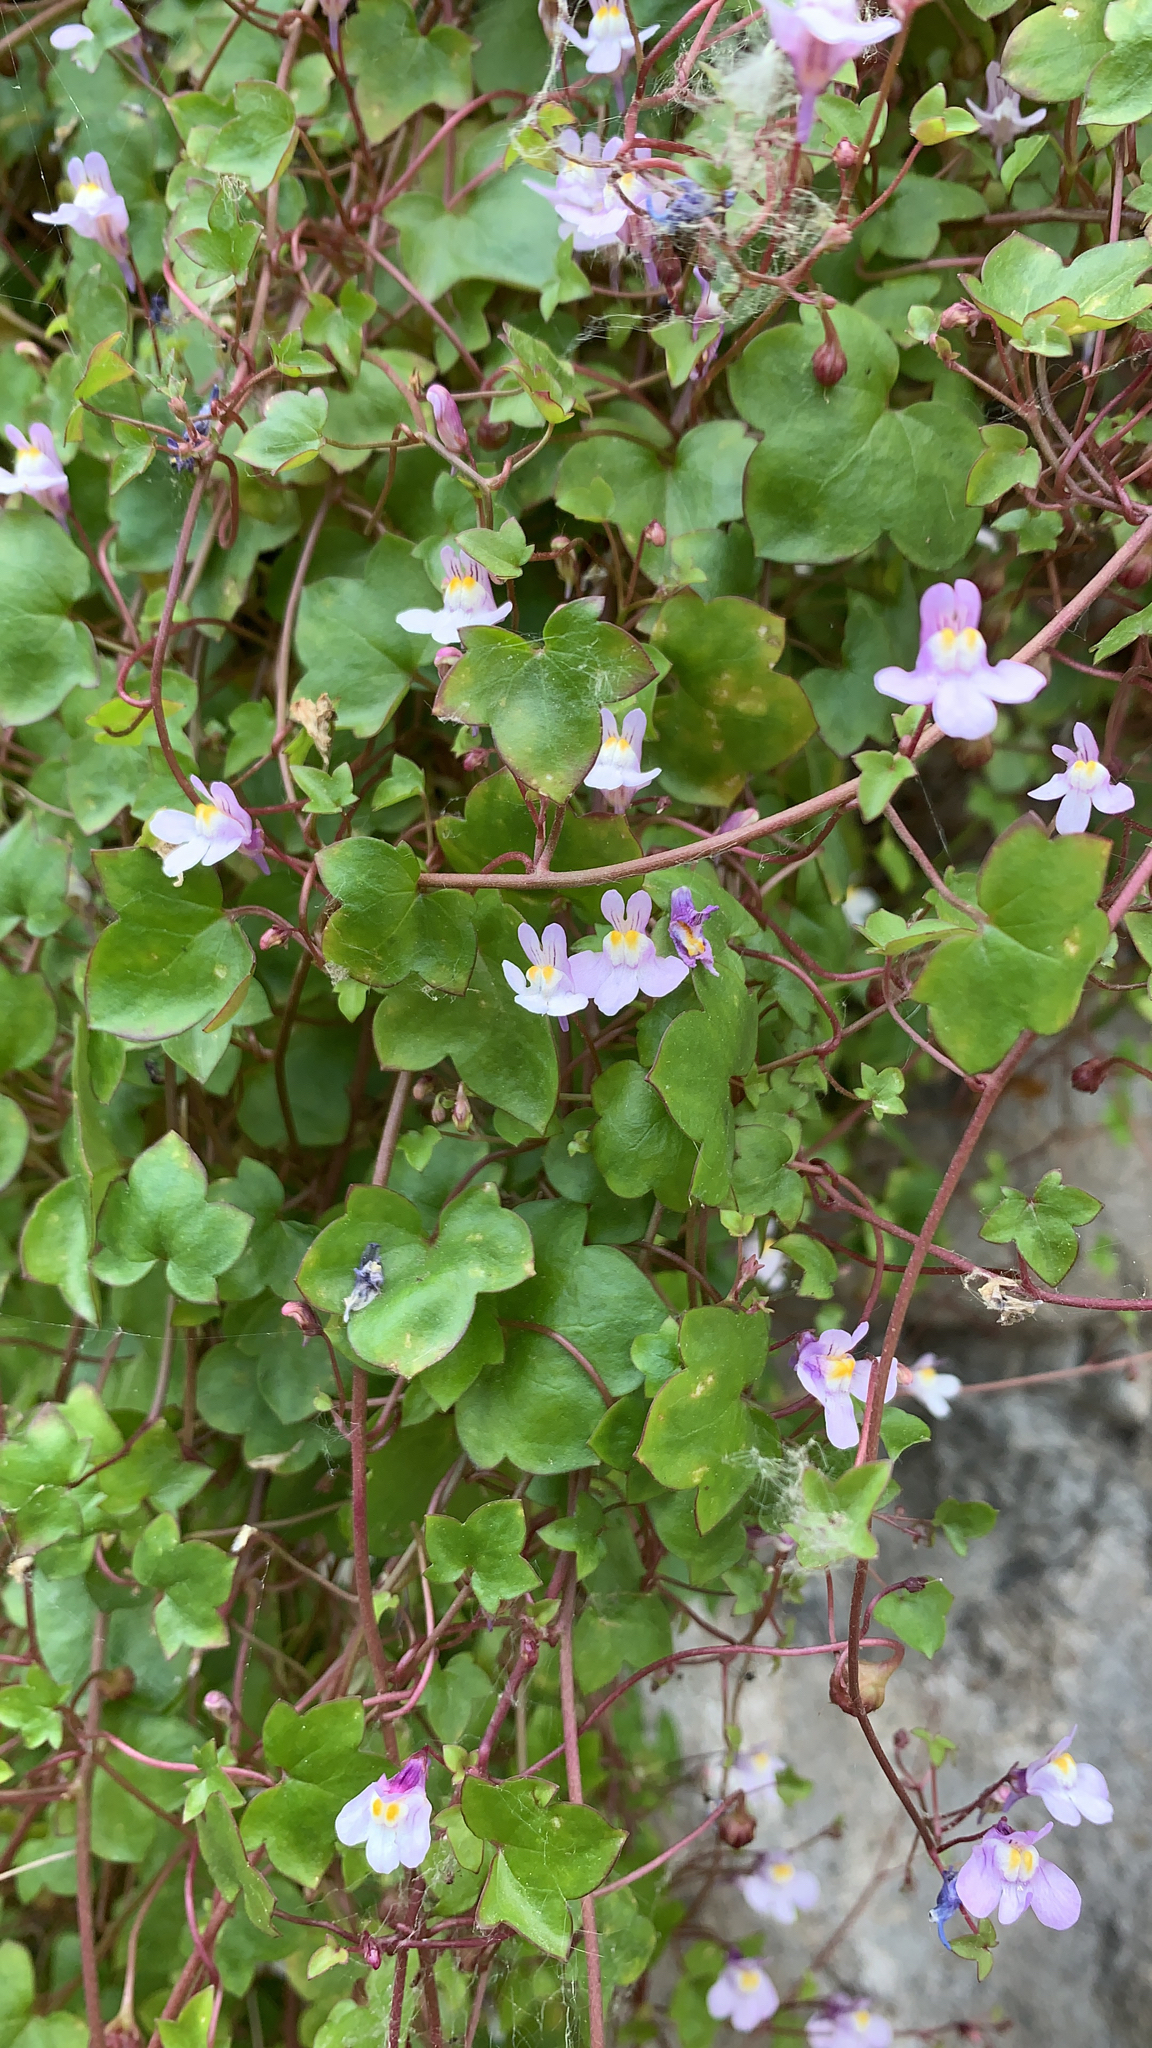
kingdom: Plantae
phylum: Tracheophyta
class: Magnoliopsida
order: Lamiales
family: Plantaginaceae
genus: Cymbalaria
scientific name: Cymbalaria muralis
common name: Ivy-leaved toadflax
